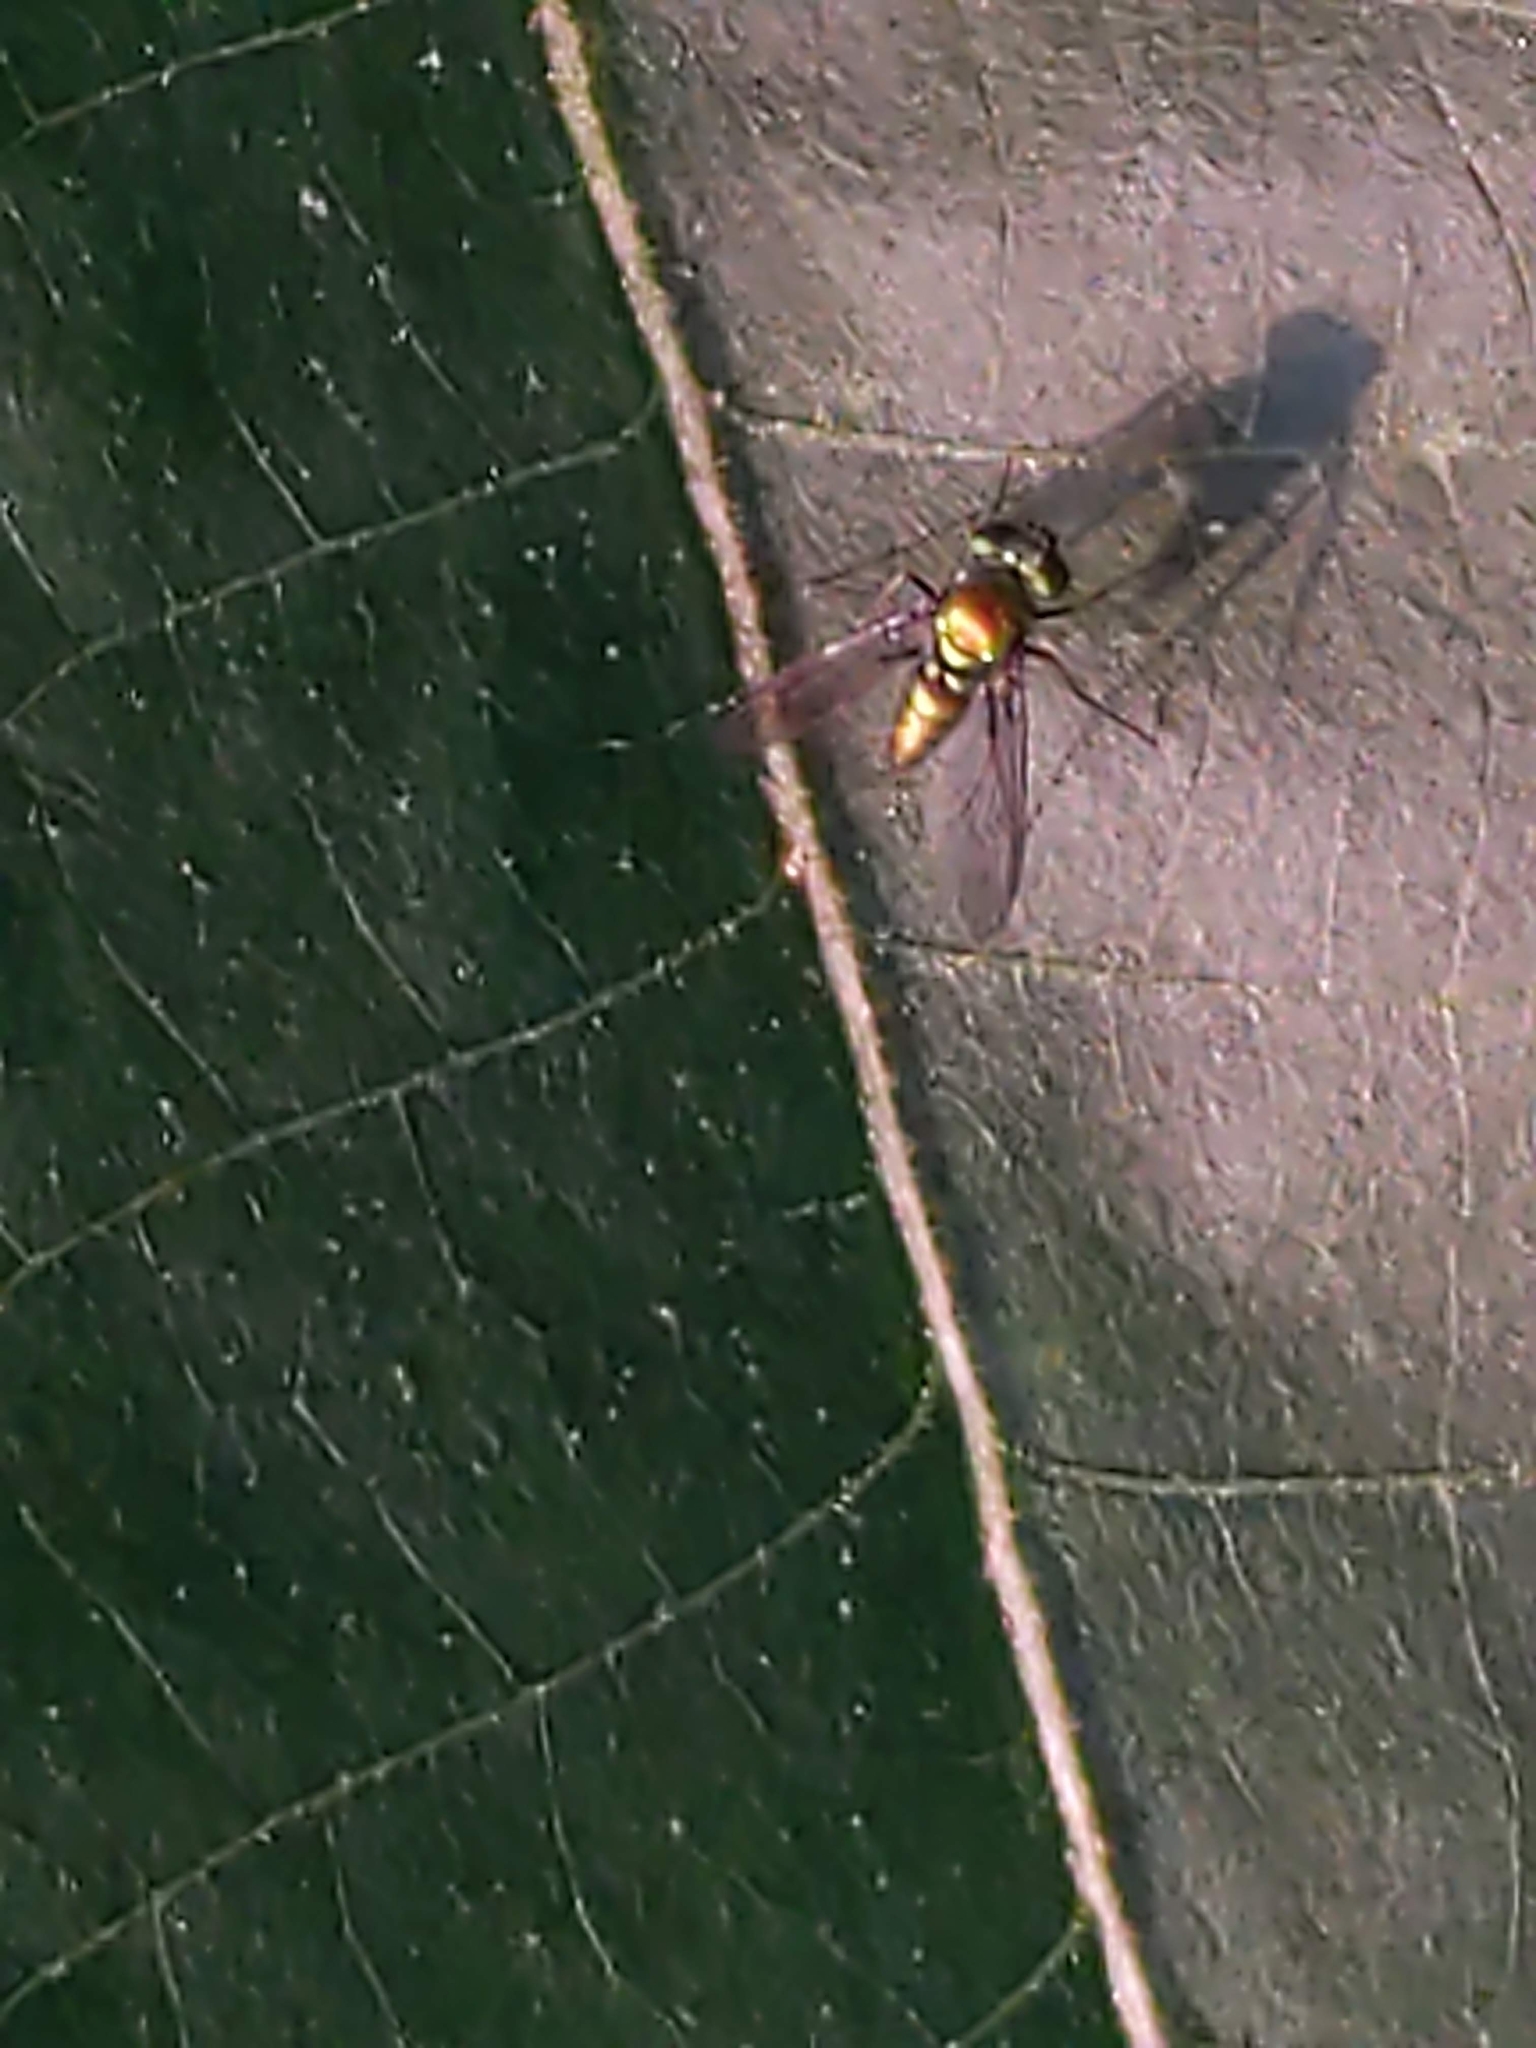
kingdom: Animalia
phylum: Arthropoda
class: Insecta
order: Diptera
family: Dolichopodidae
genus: Condylostylus
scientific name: Condylostylus
